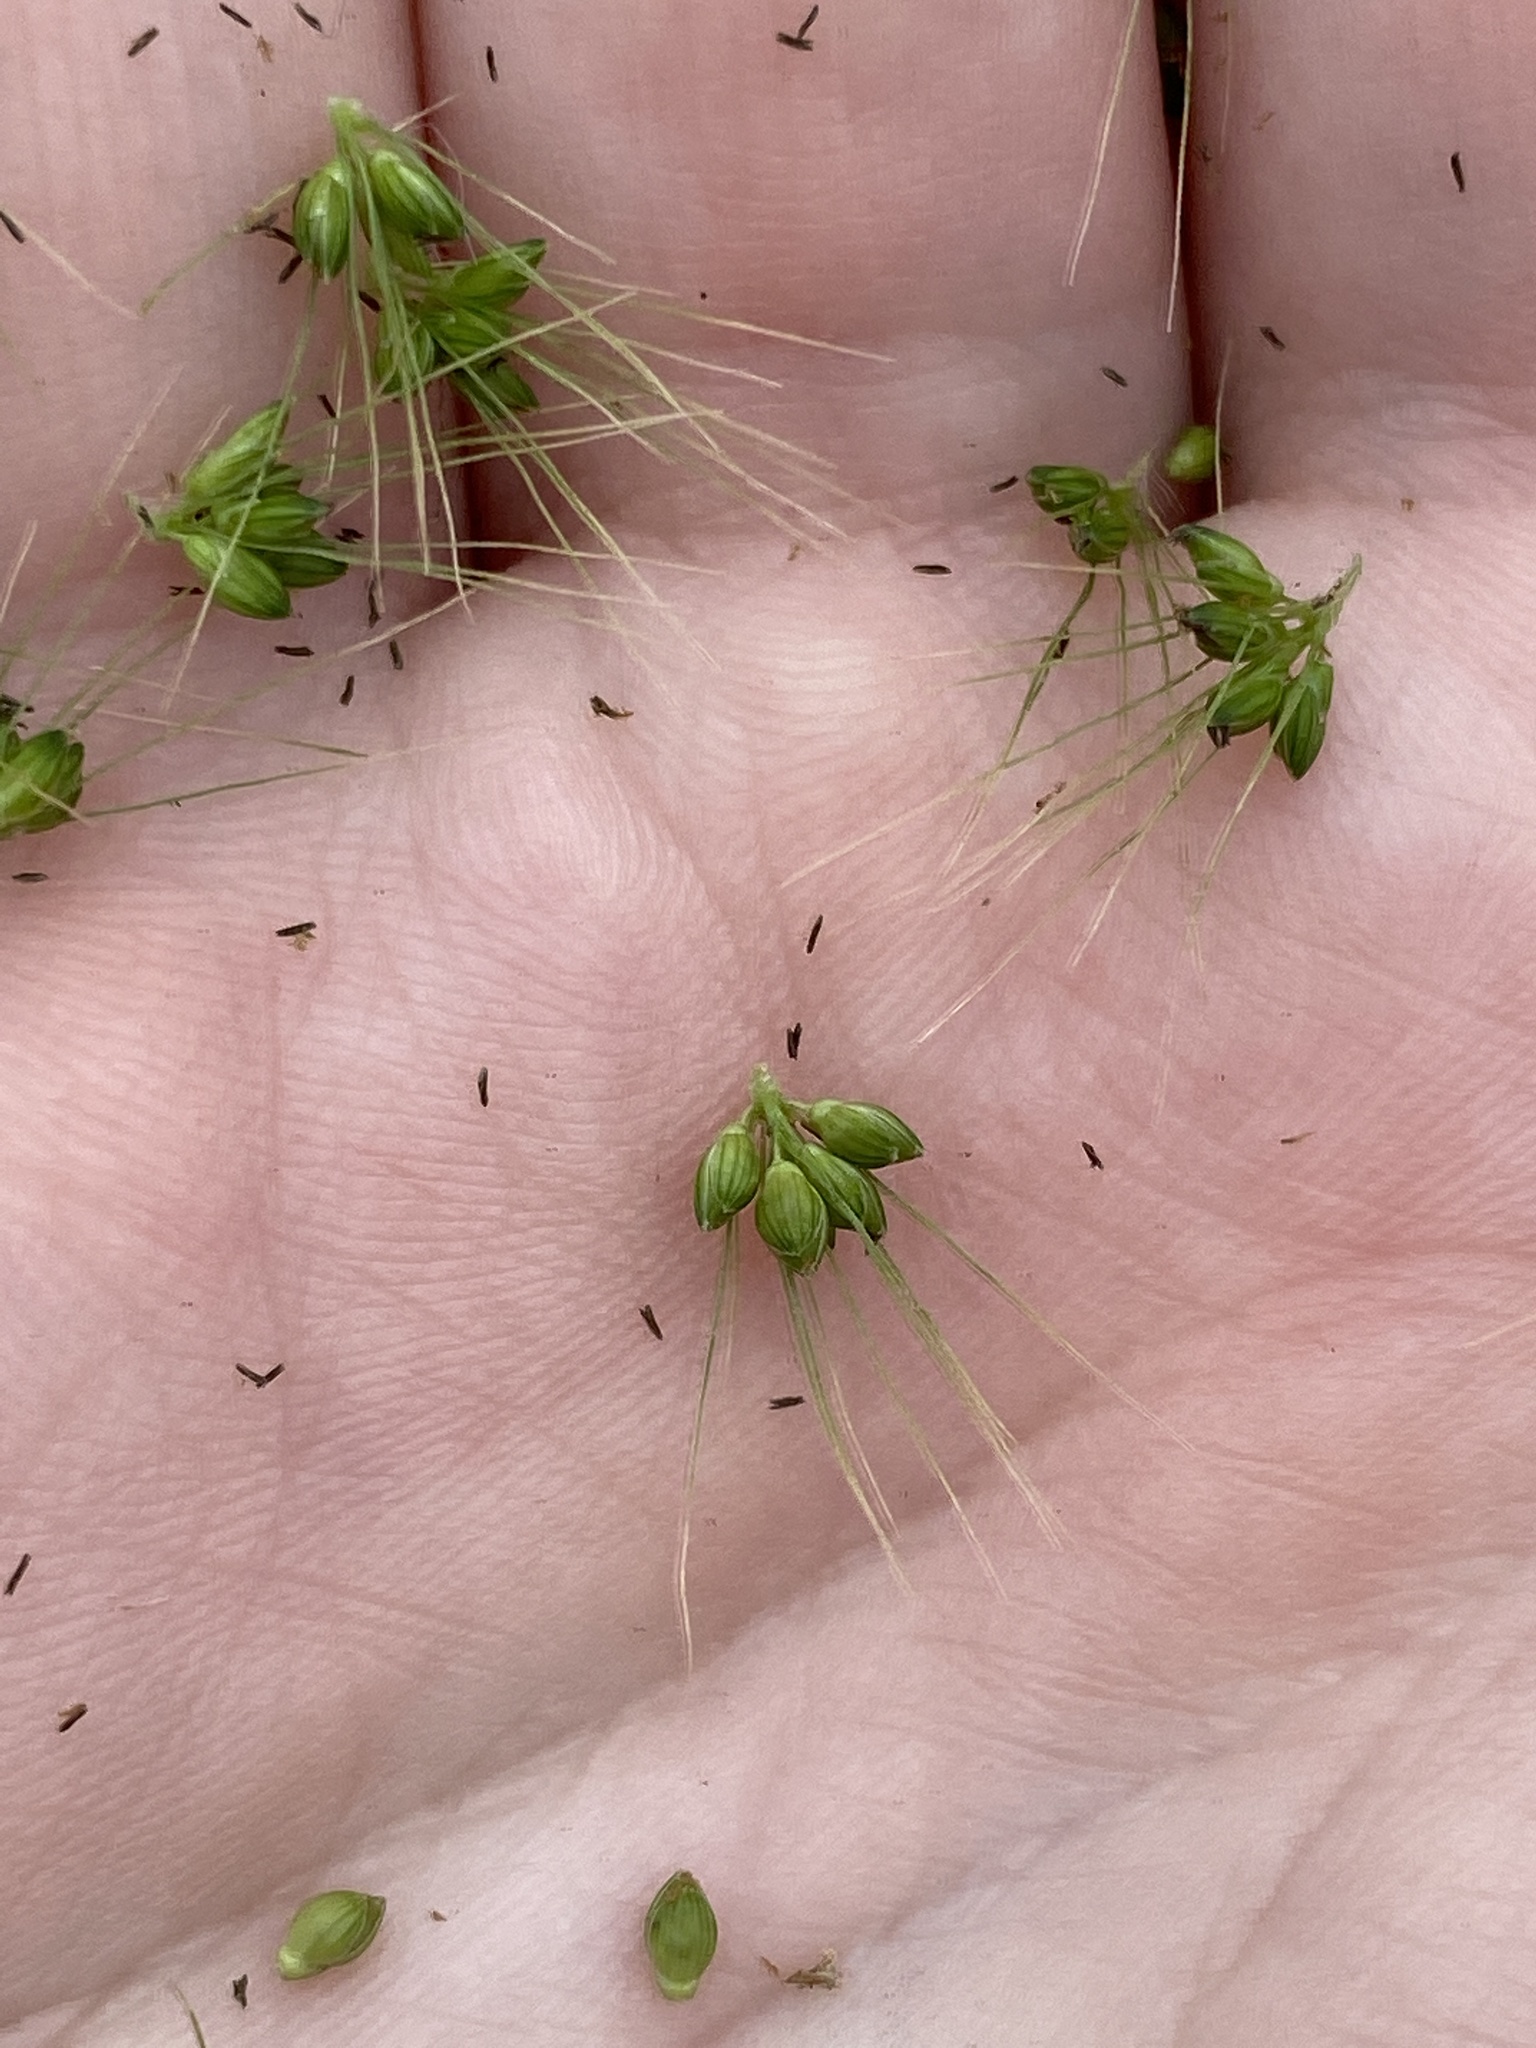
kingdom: Plantae
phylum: Tracheophyta
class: Liliopsida
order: Poales
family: Poaceae
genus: Setaria
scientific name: Setaria faberi
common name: Nodding bristle-grass
